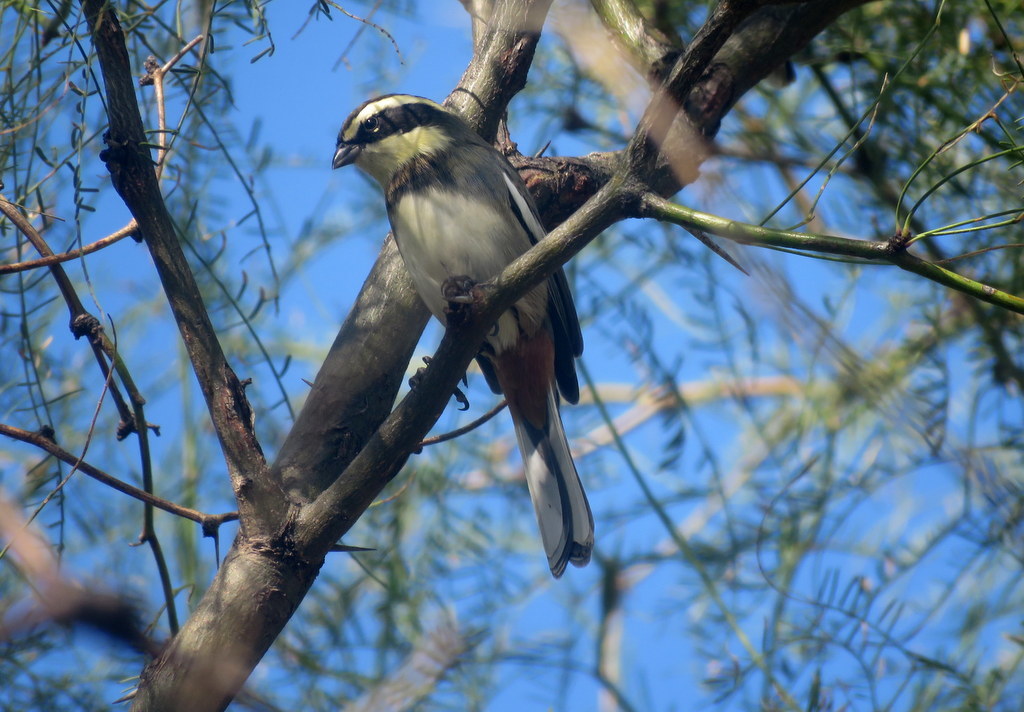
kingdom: Animalia
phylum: Chordata
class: Aves
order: Passeriformes
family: Thraupidae
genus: Microspingus
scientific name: Microspingus torquatus
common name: Ringed warbling-finch
